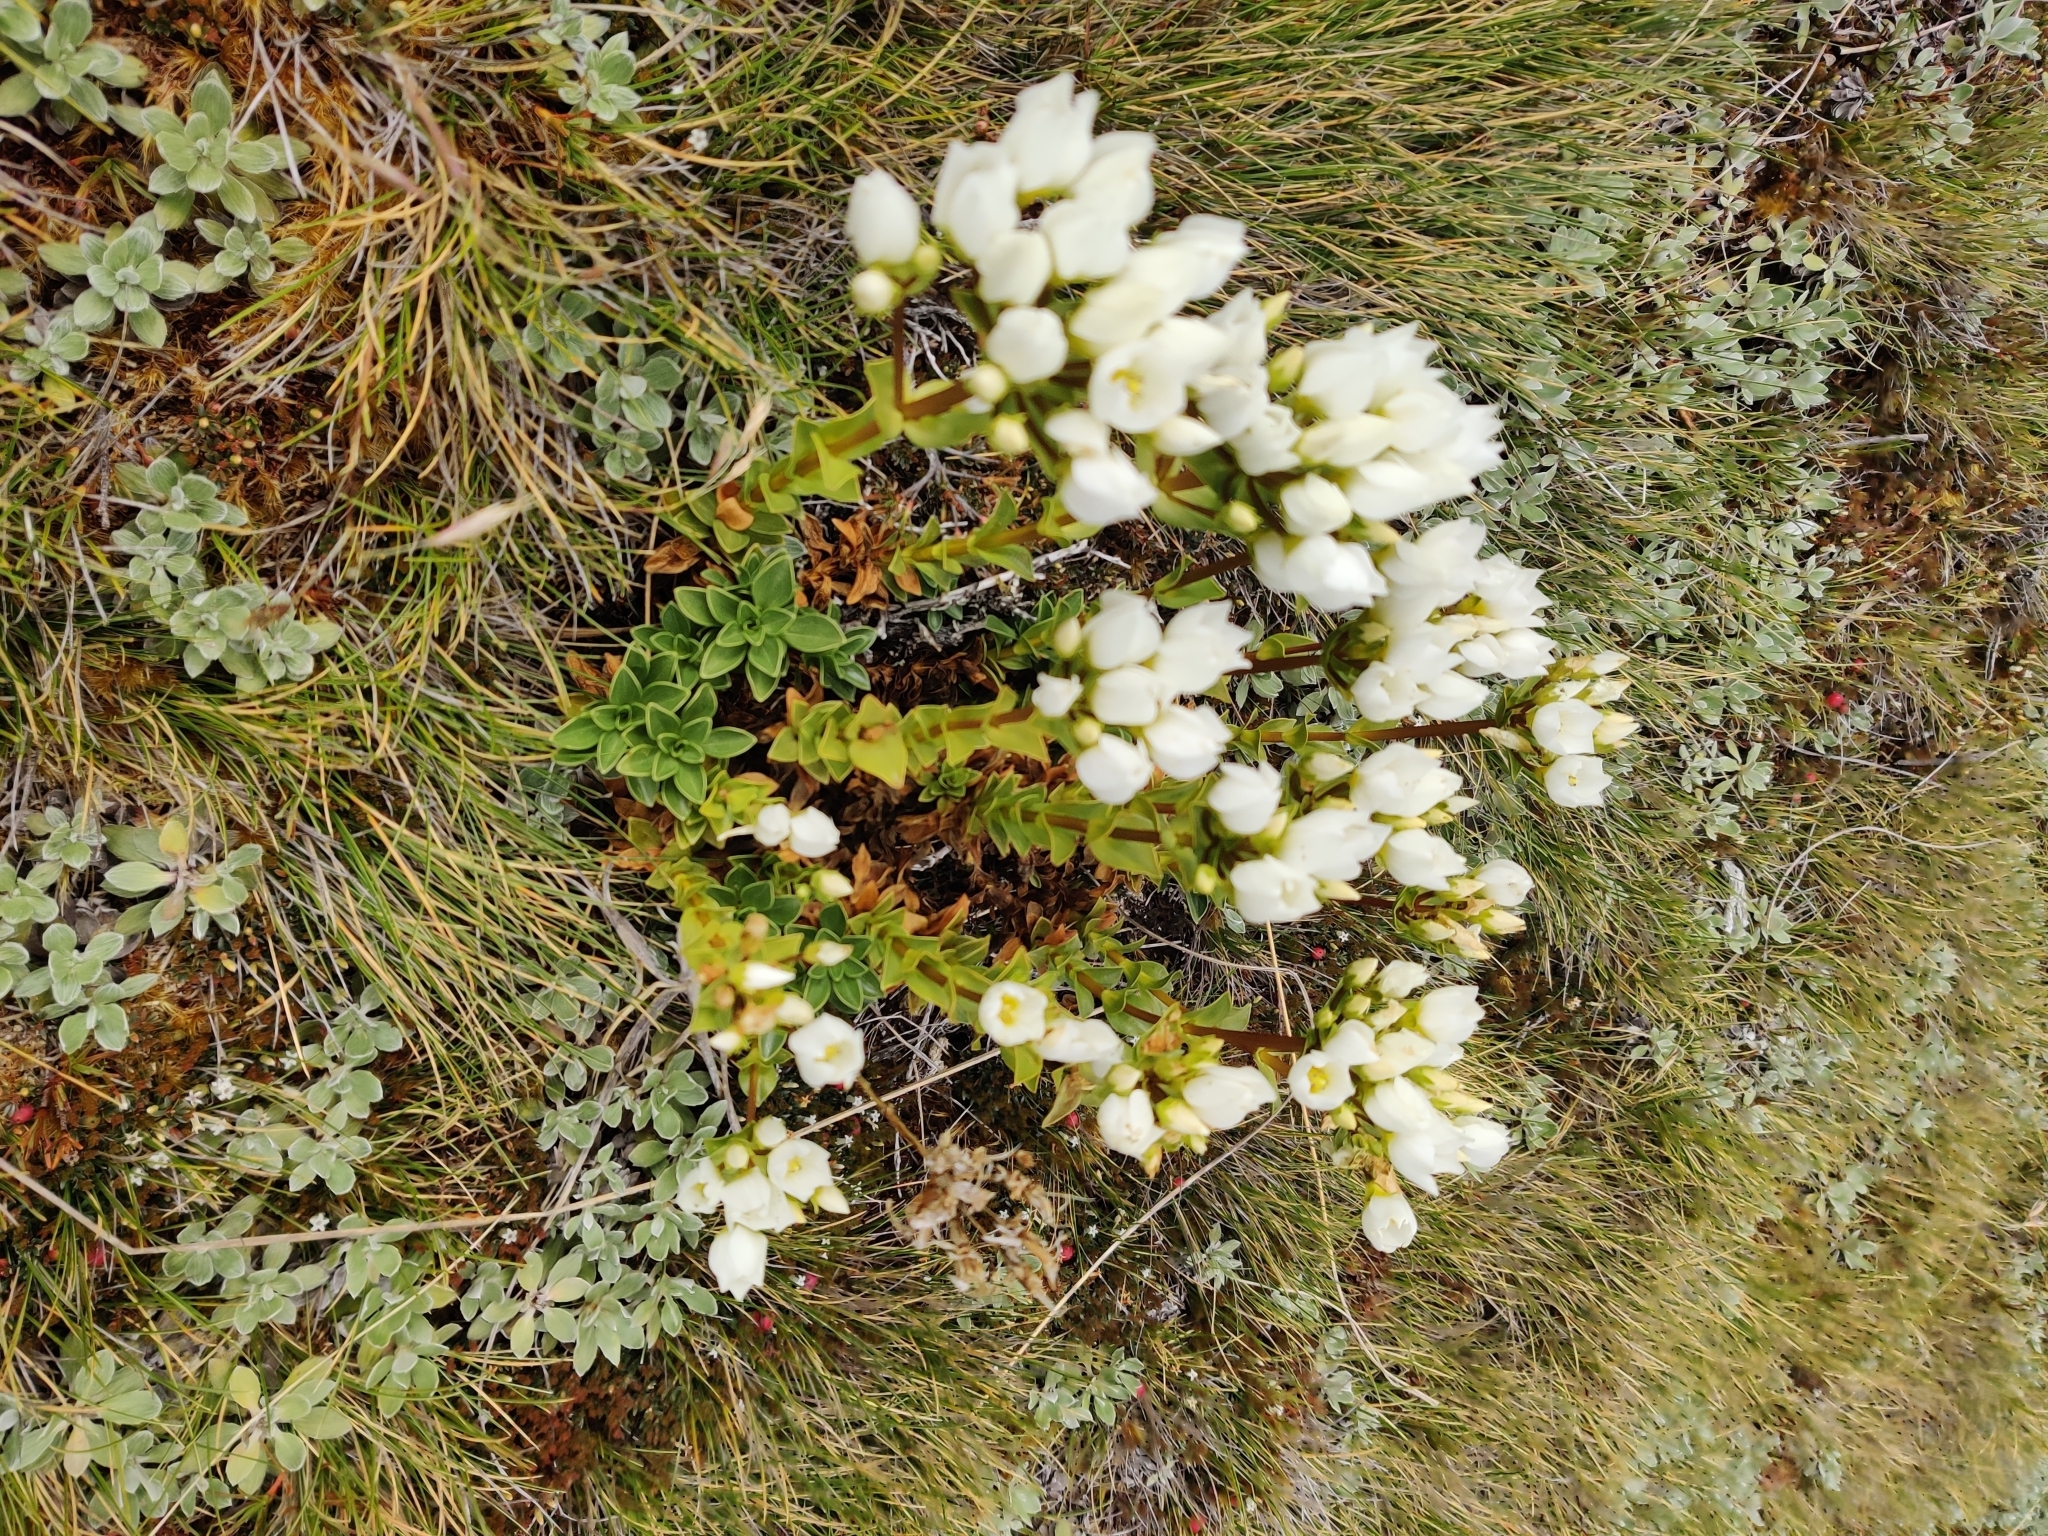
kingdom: Plantae
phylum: Tracheophyta
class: Magnoliopsida
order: Gentianales
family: Gentianaceae
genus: Gentianella
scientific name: Gentianella impressinervia
